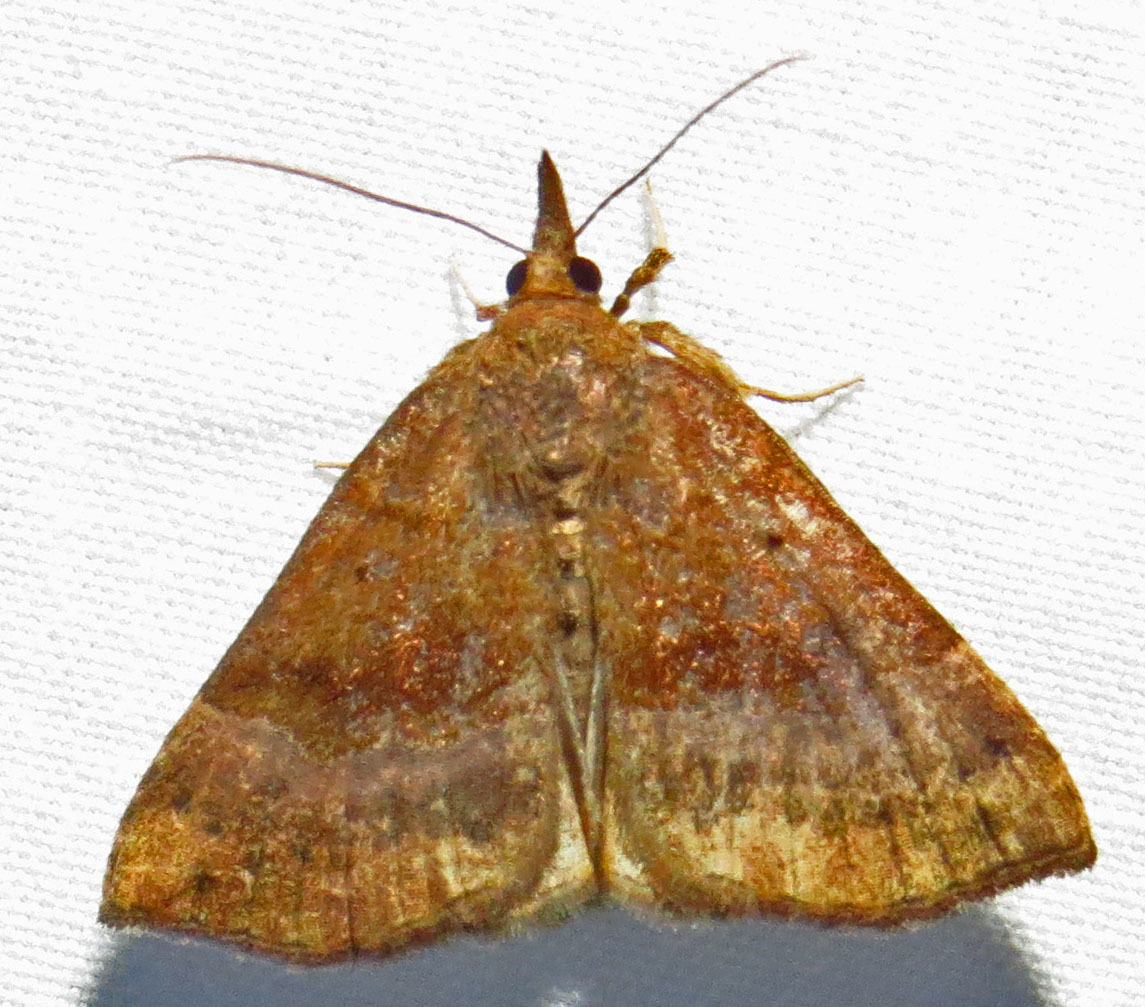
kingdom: Animalia
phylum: Arthropoda
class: Insecta
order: Lepidoptera
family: Erebidae
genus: Hypena
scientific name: Hypena madefactalis
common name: Gray-edged snout
